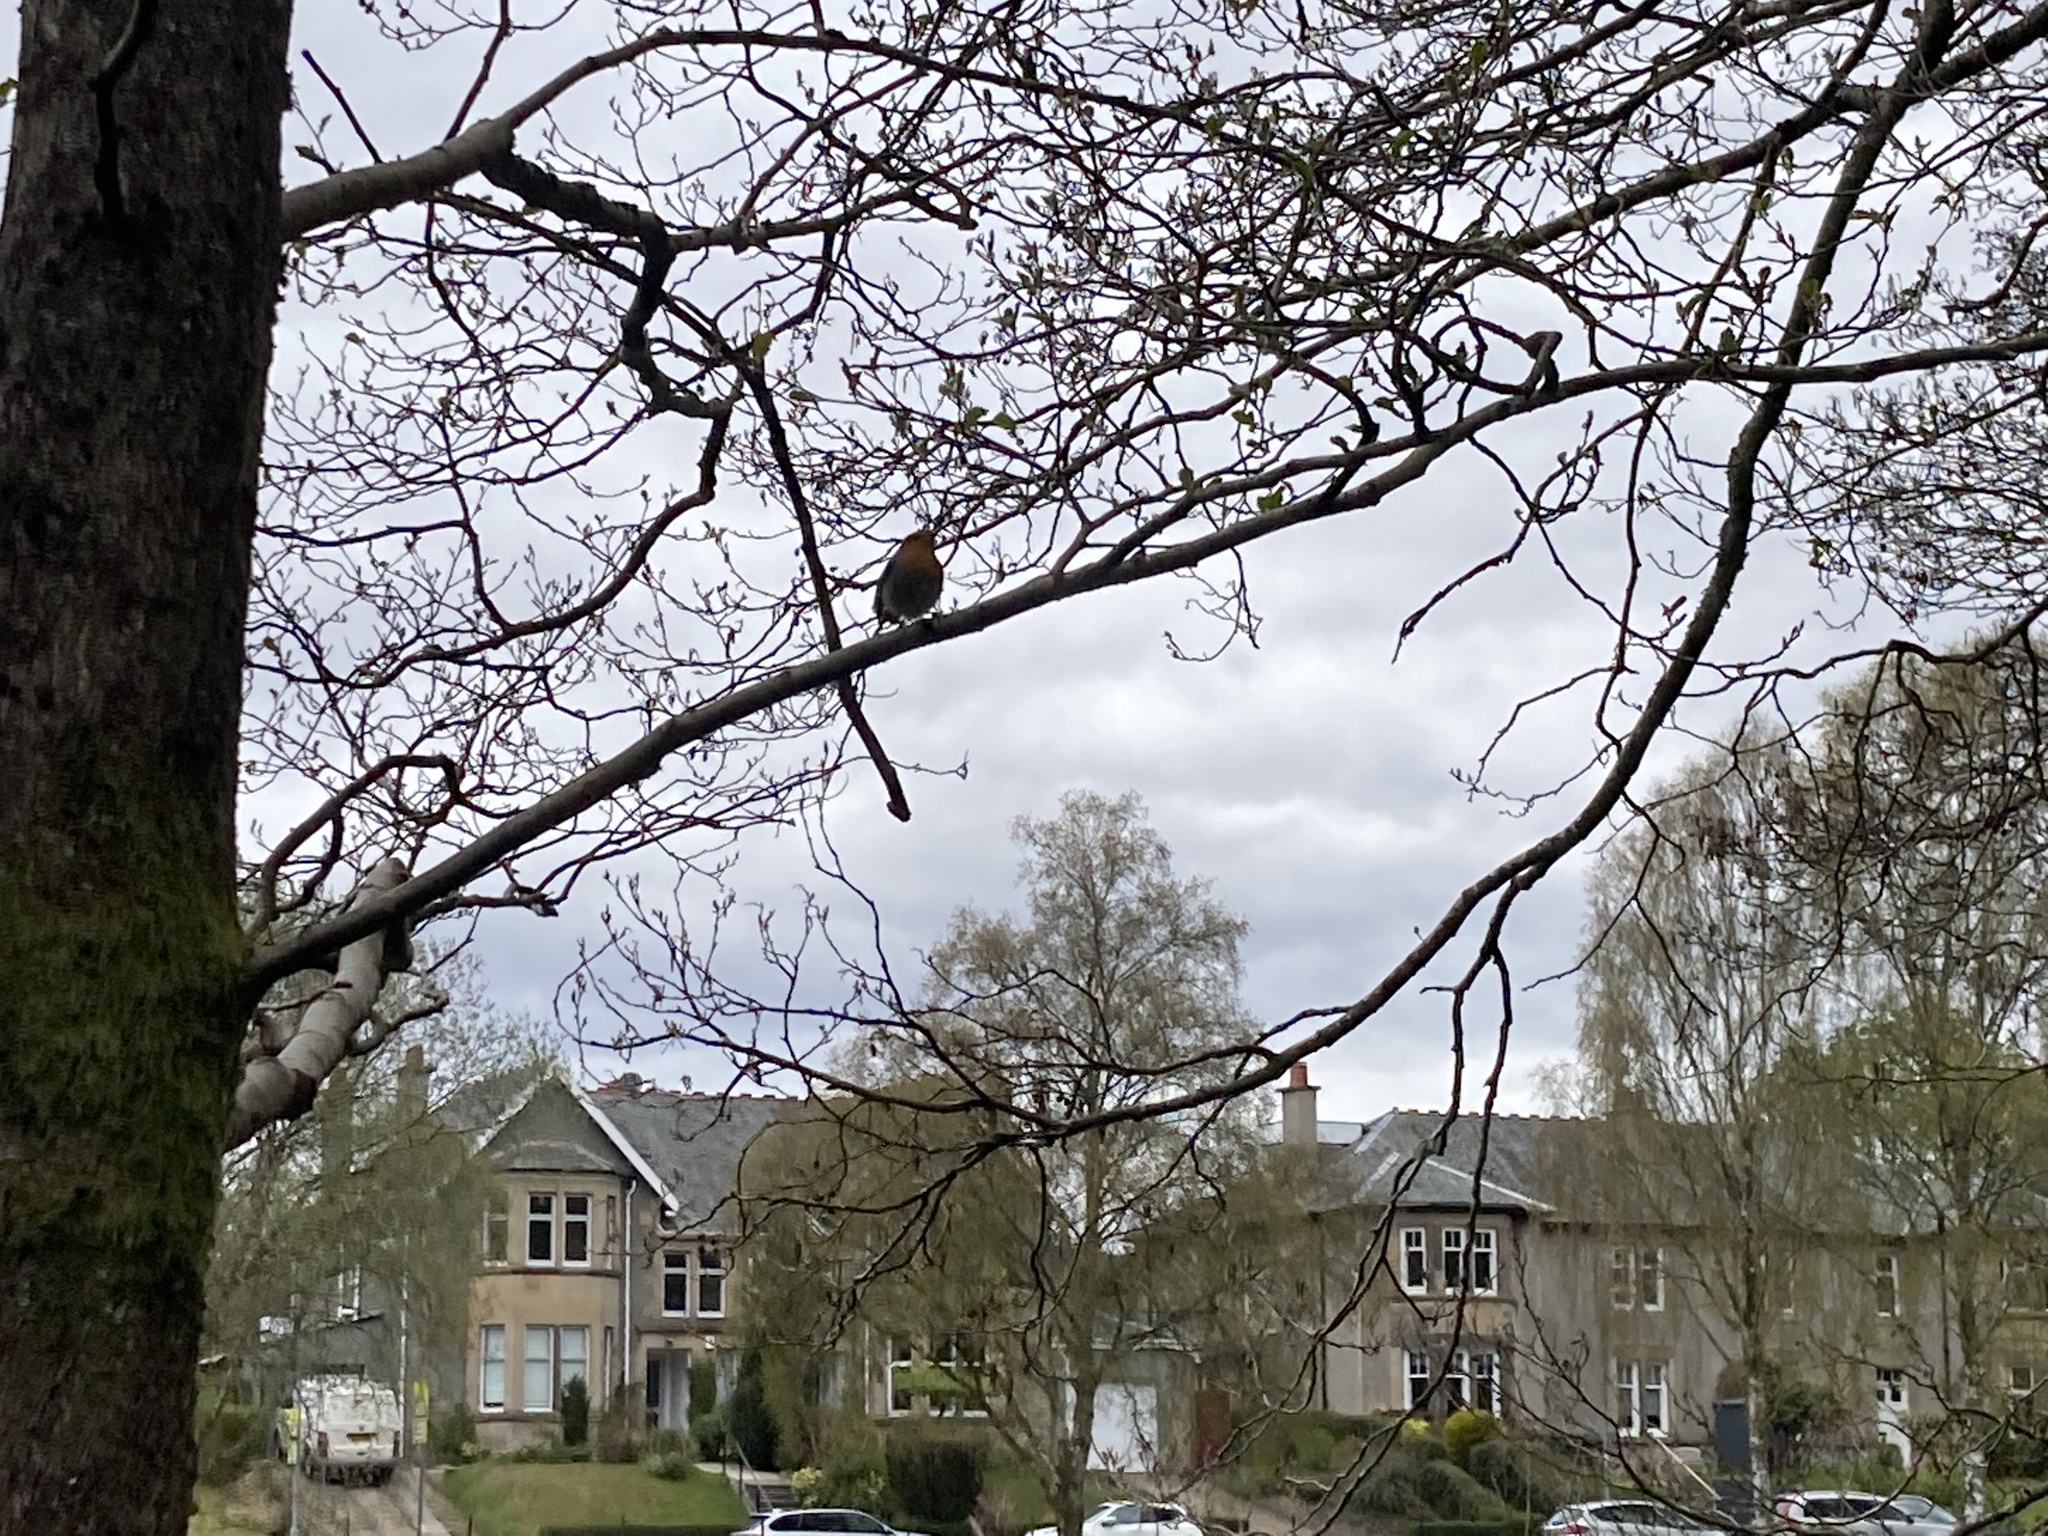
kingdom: Animalia
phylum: Chordata
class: Aves
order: Passeriformes
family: Muscicapidae
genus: Erithacus
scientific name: Erithacus rubecula
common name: European robin
